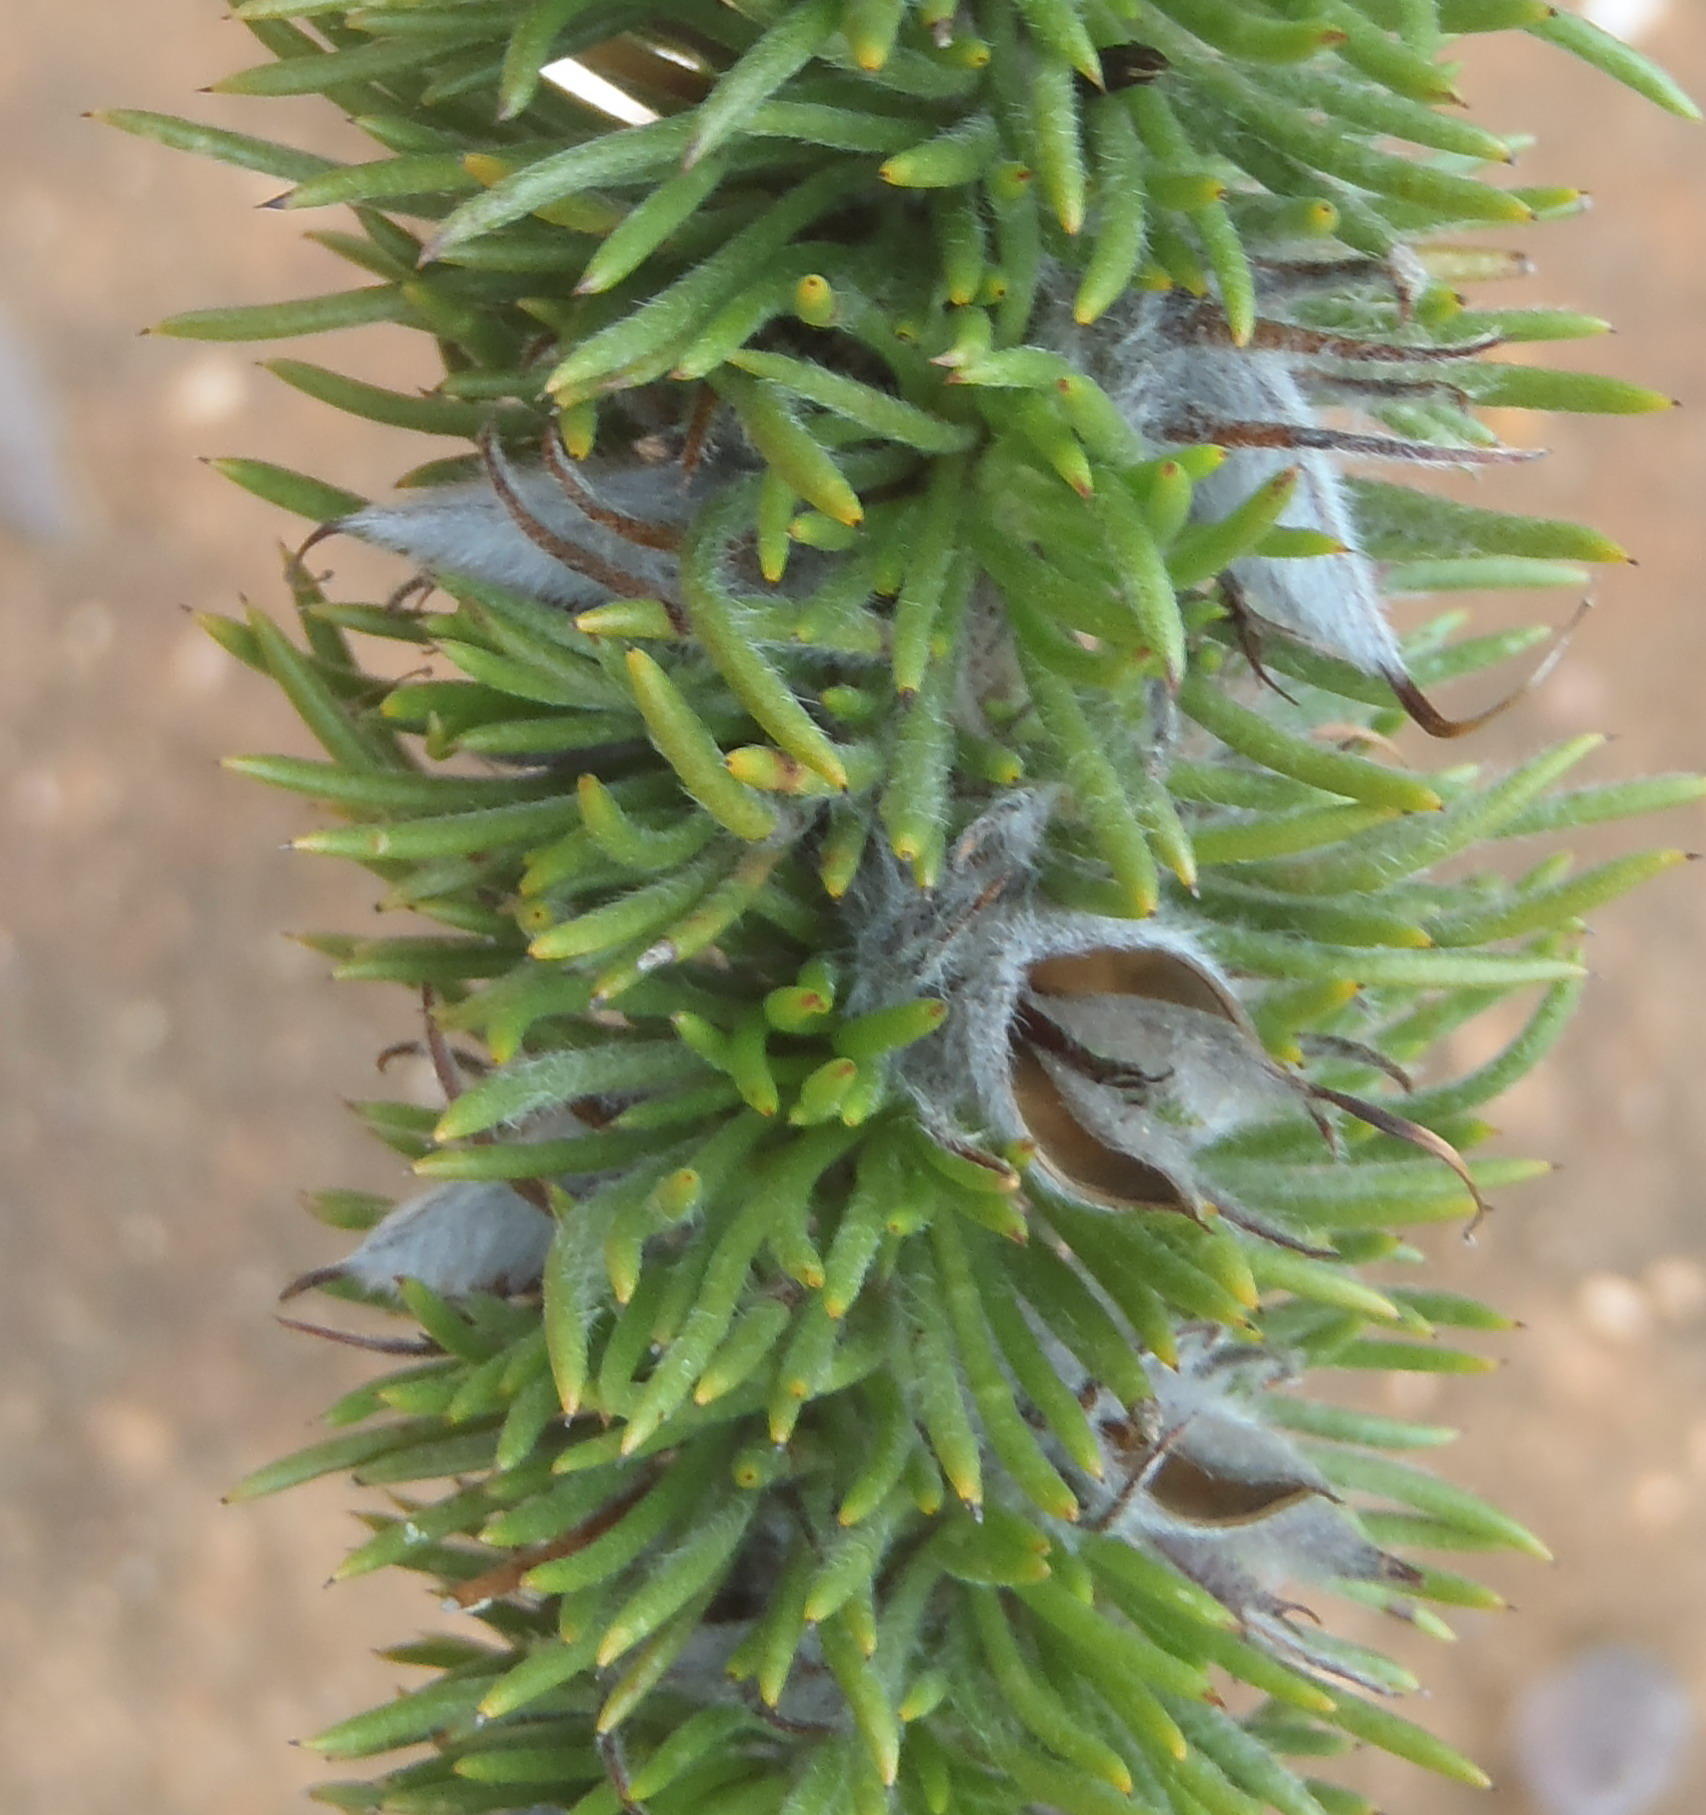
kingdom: Plantae
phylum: Tracheophyta
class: Magnoliopsida
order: Fabales
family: Fabaceae
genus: Aspalathus
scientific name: Aspalathus acanthes
